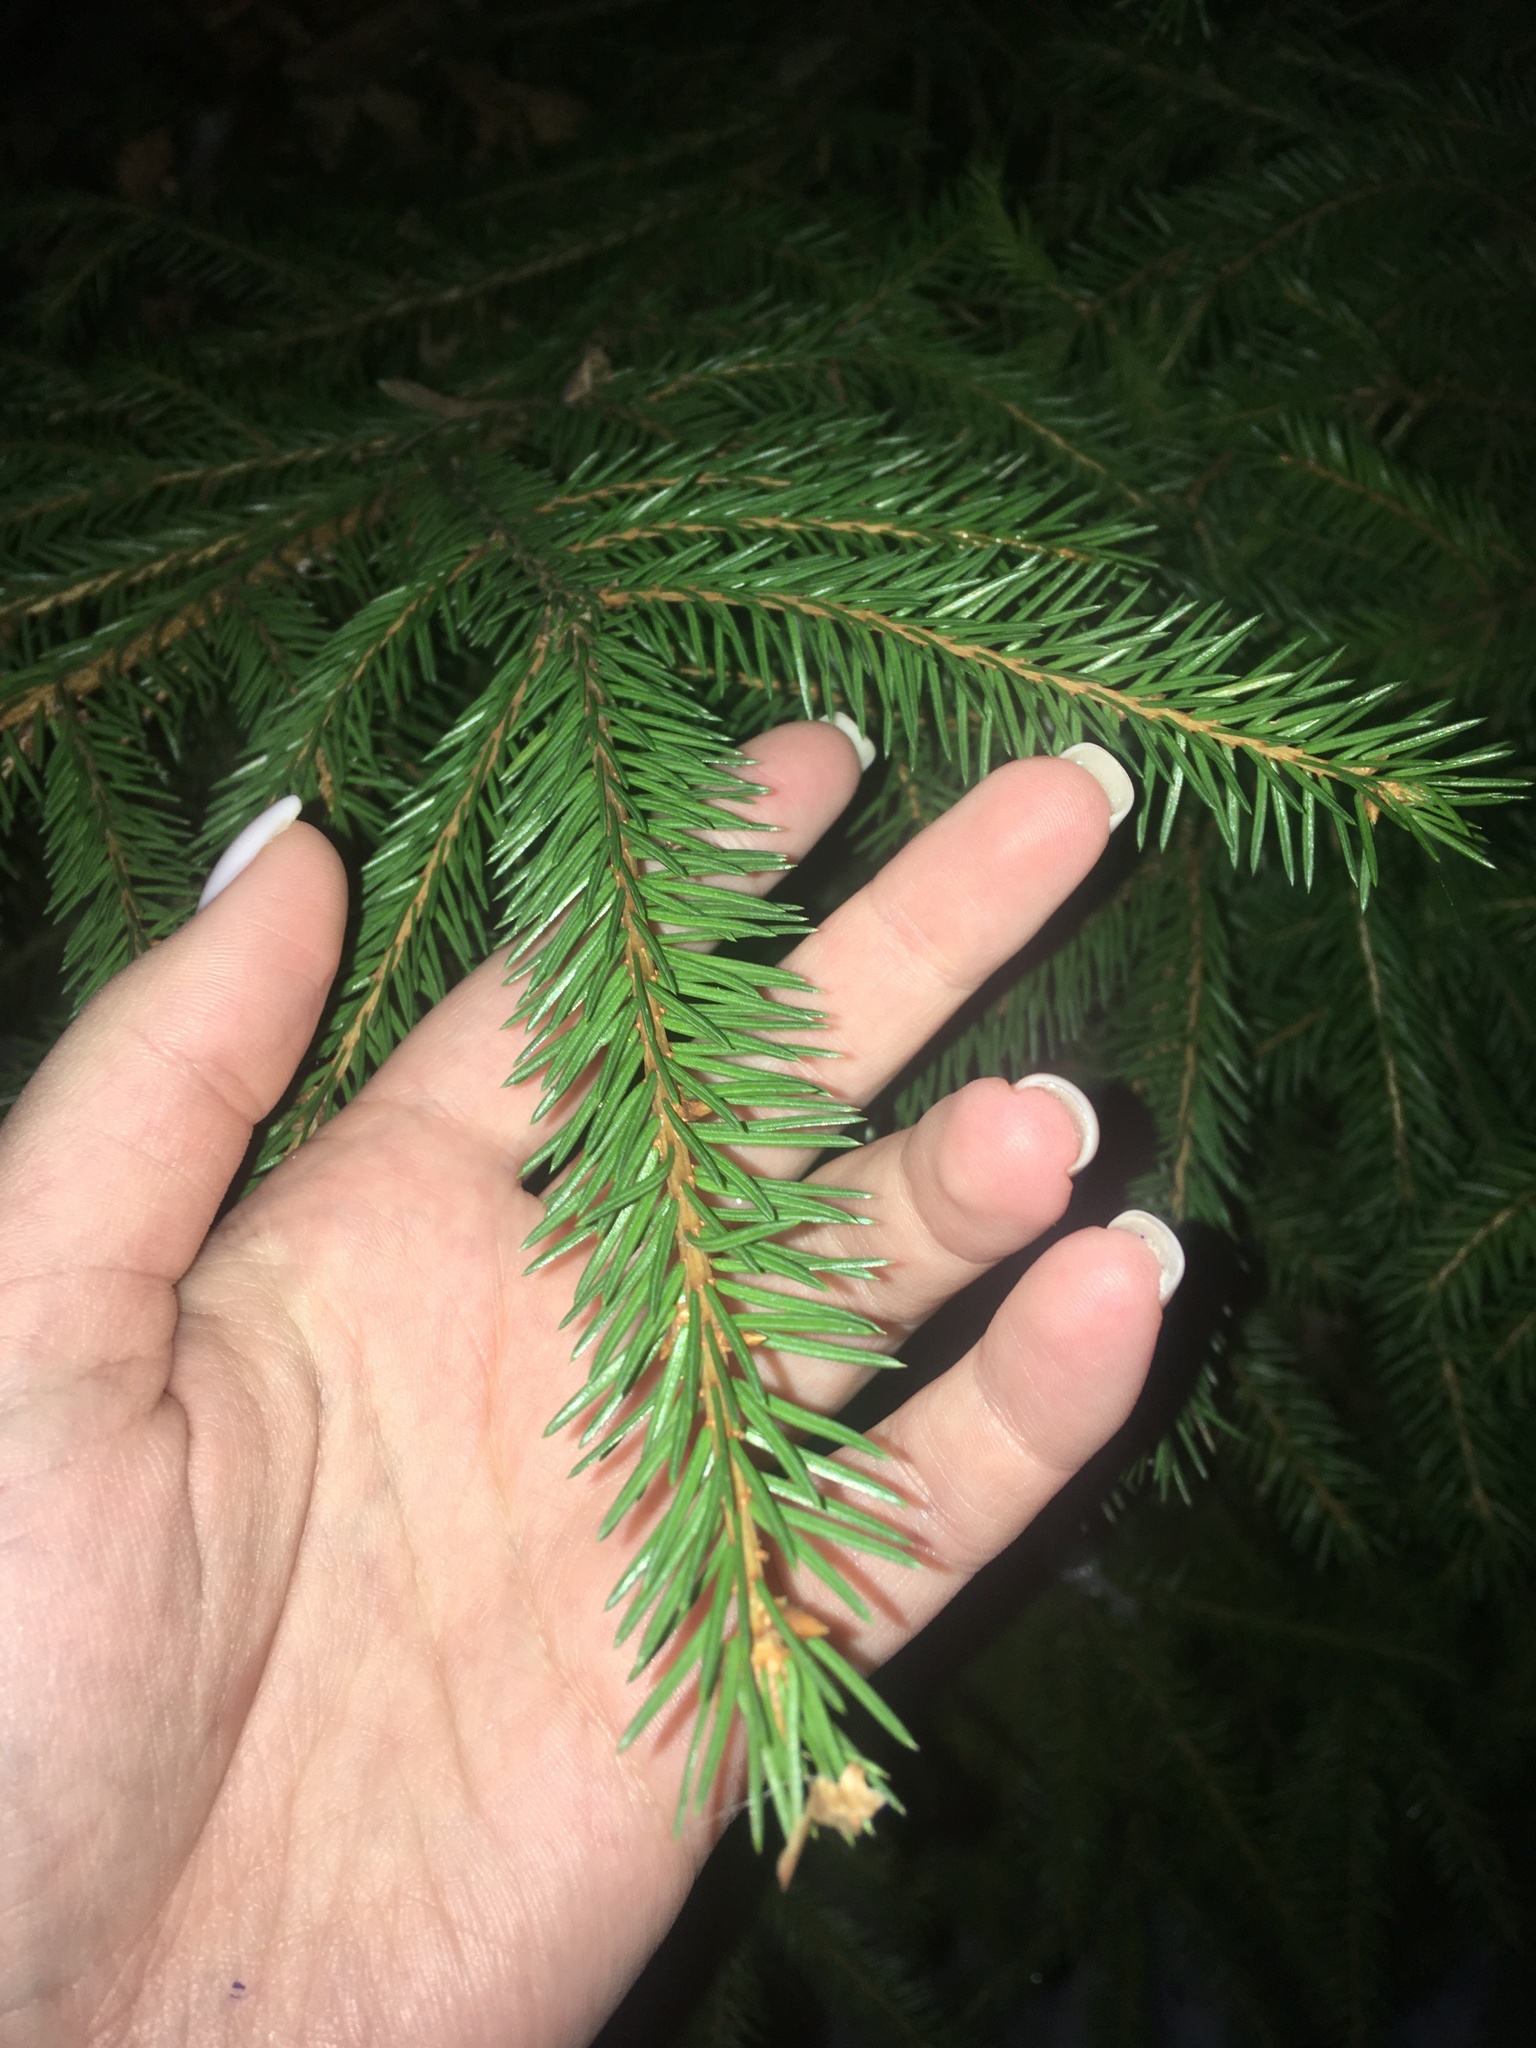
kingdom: Plantae
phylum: Tracheophyta
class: Pinopsida
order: Pinales
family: Pinaceae
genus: Picea
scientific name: Picea abies
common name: Norway spruce
